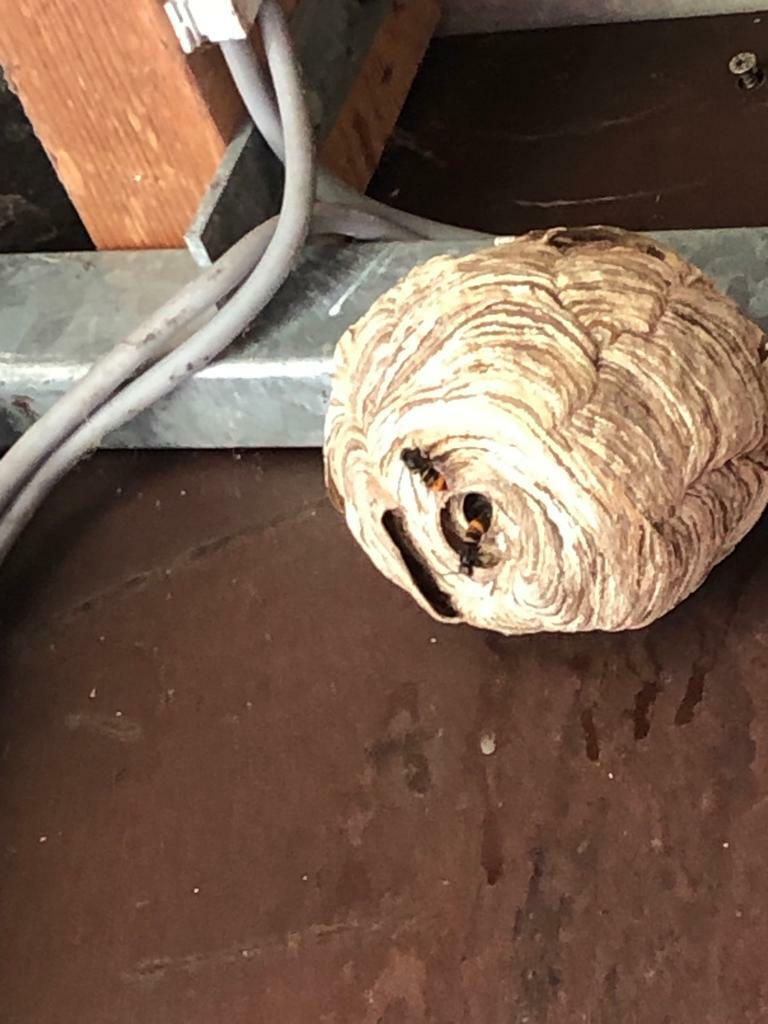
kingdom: Animalia
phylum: Arthropoda
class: Insecta
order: Hymenoptera
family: Vespidae
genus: Vespa
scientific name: Vespa velutina
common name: Asian hornet
